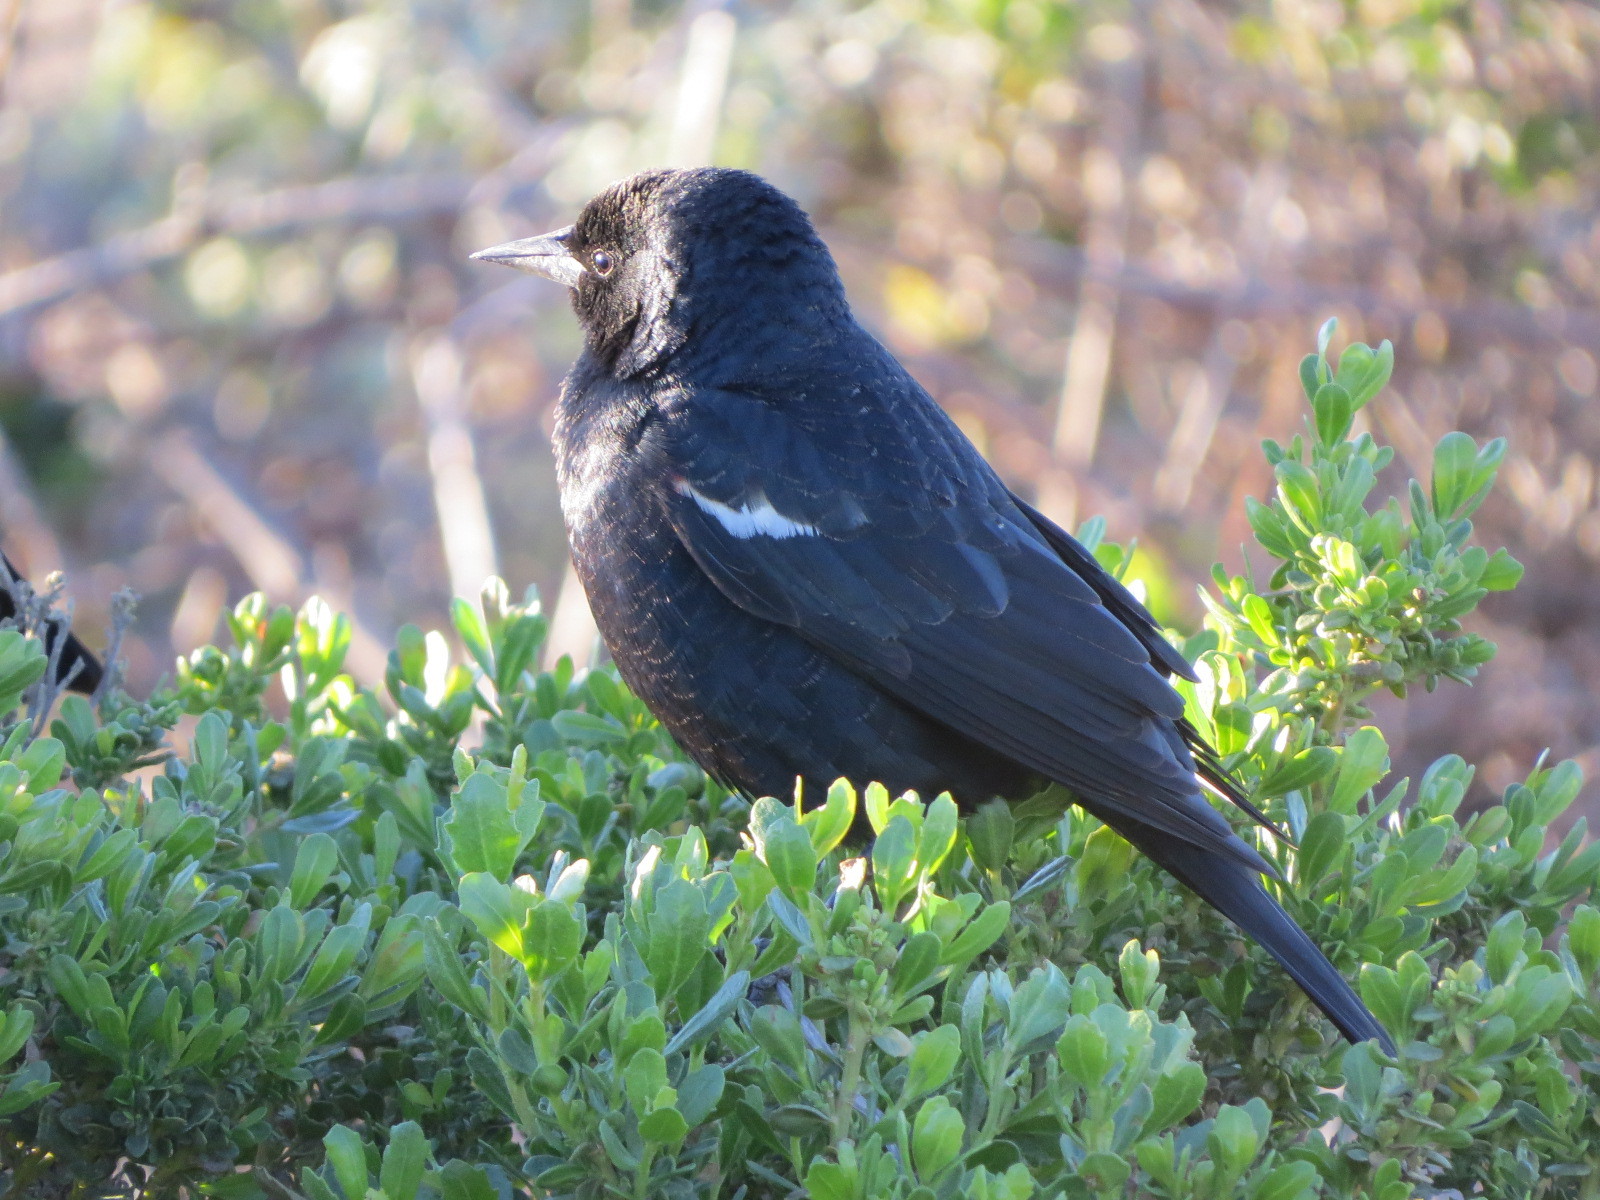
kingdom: Animalia
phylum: Chordata
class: Aves
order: Passeriformes
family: Icteridae
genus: Agelaius
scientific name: Agelaius tricolor
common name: Tricolored blackbird
